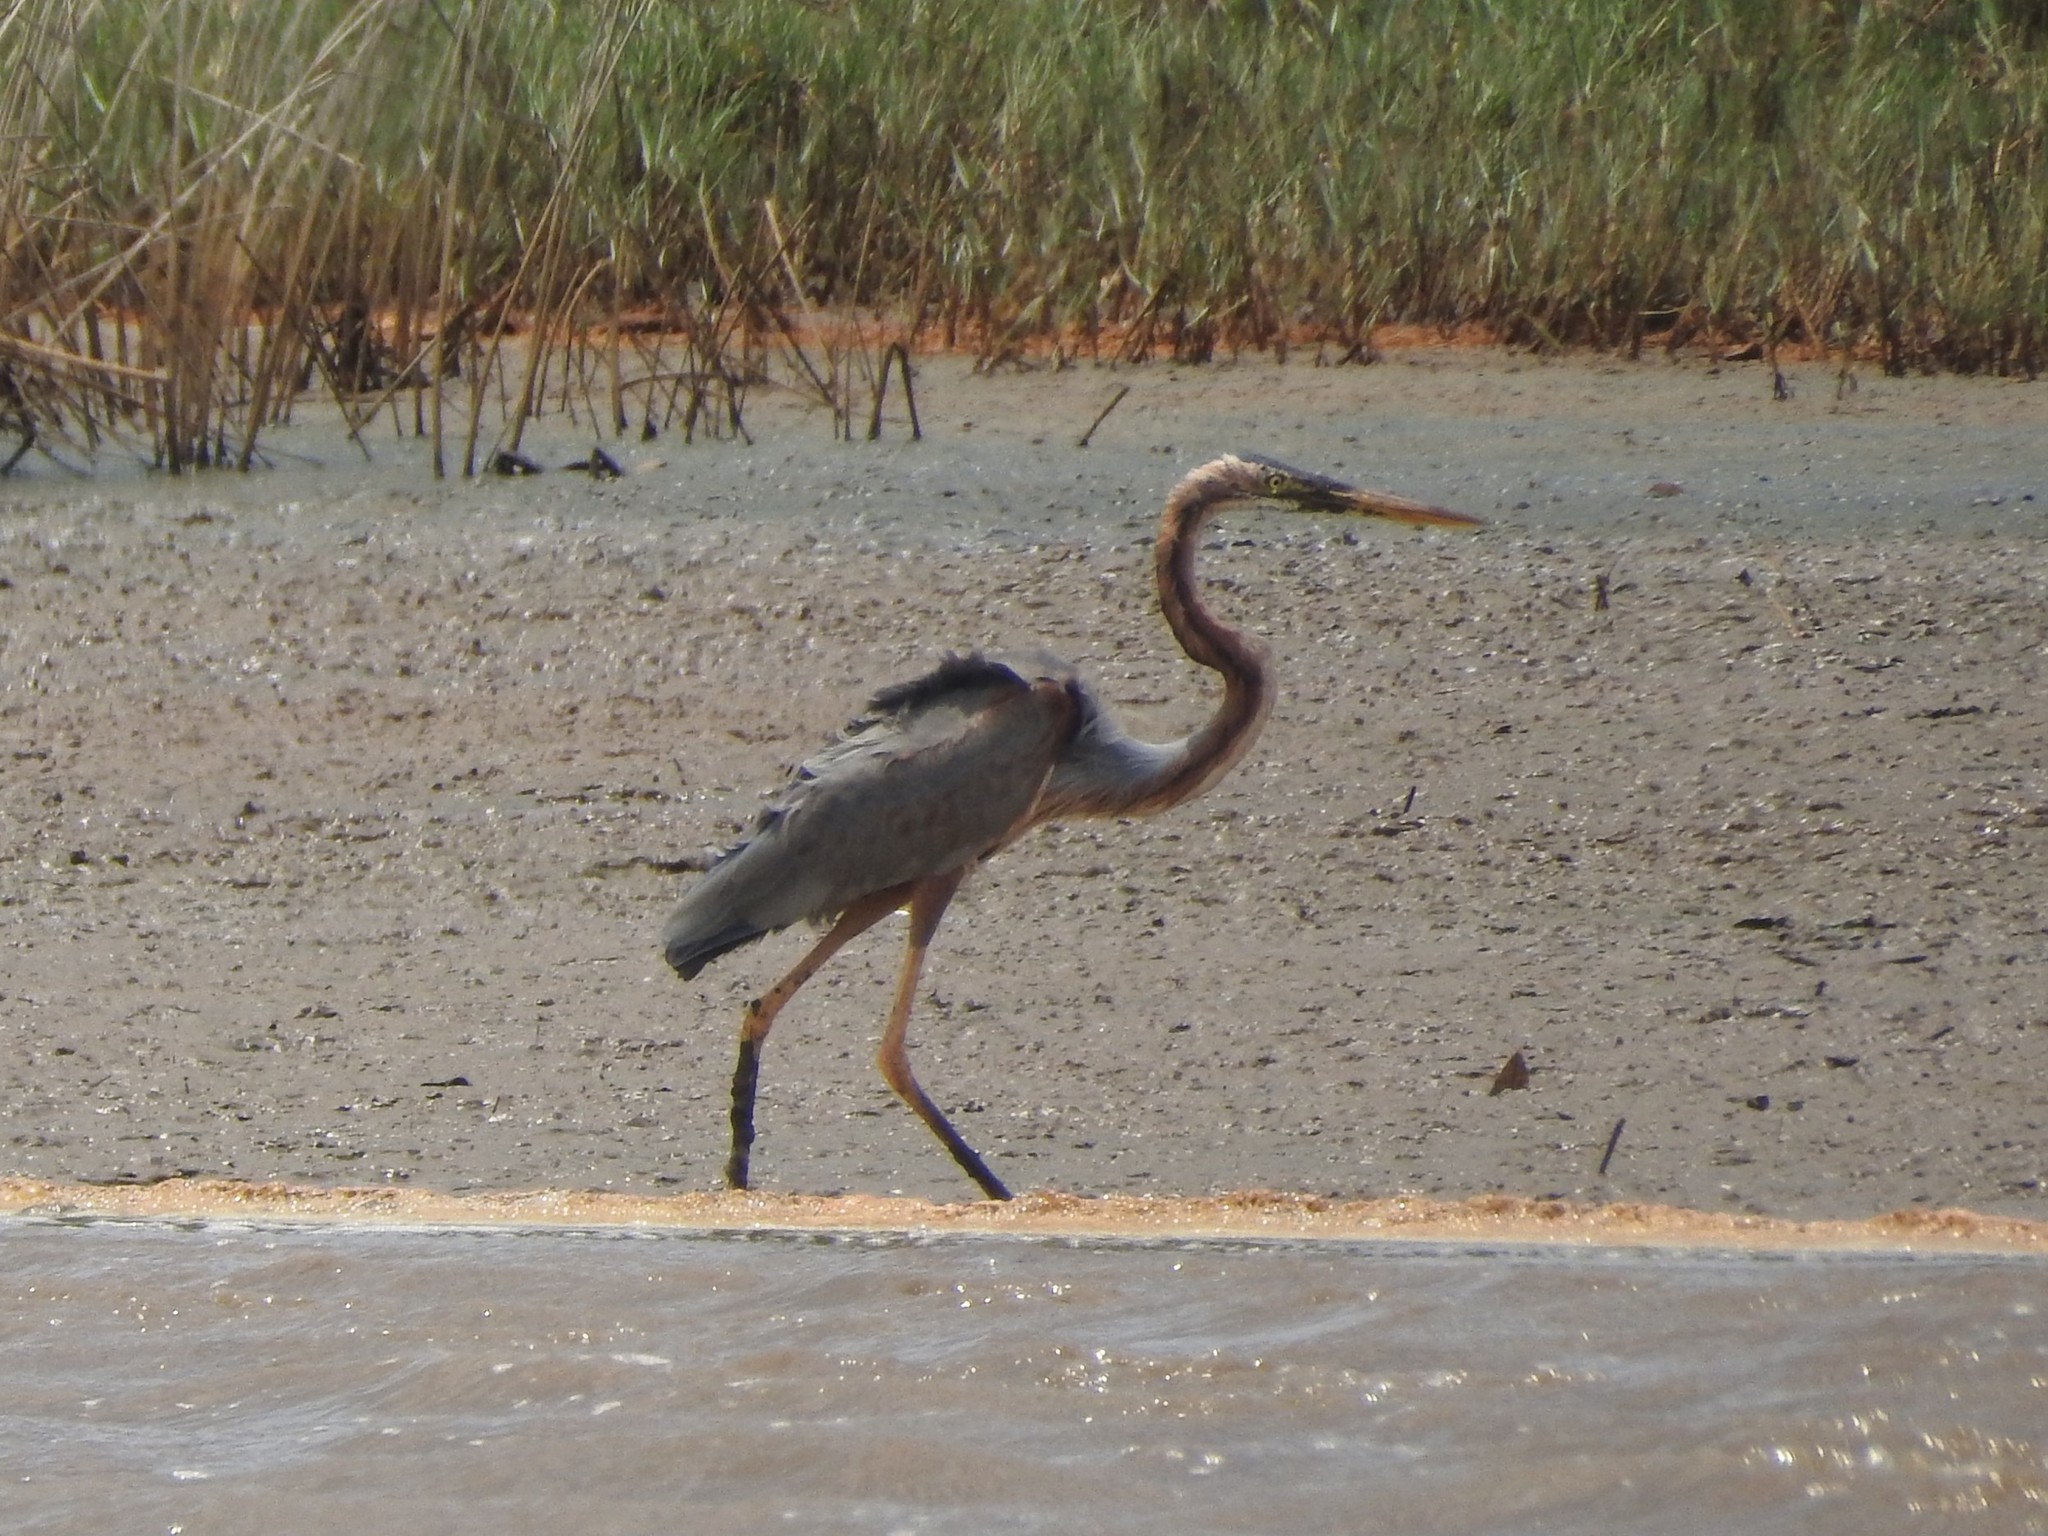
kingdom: Animalia
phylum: Chordata
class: Aves
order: Pelecaniformes
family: Ardeidae
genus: Ardea
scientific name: Ardea purpurea
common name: Purple heron
